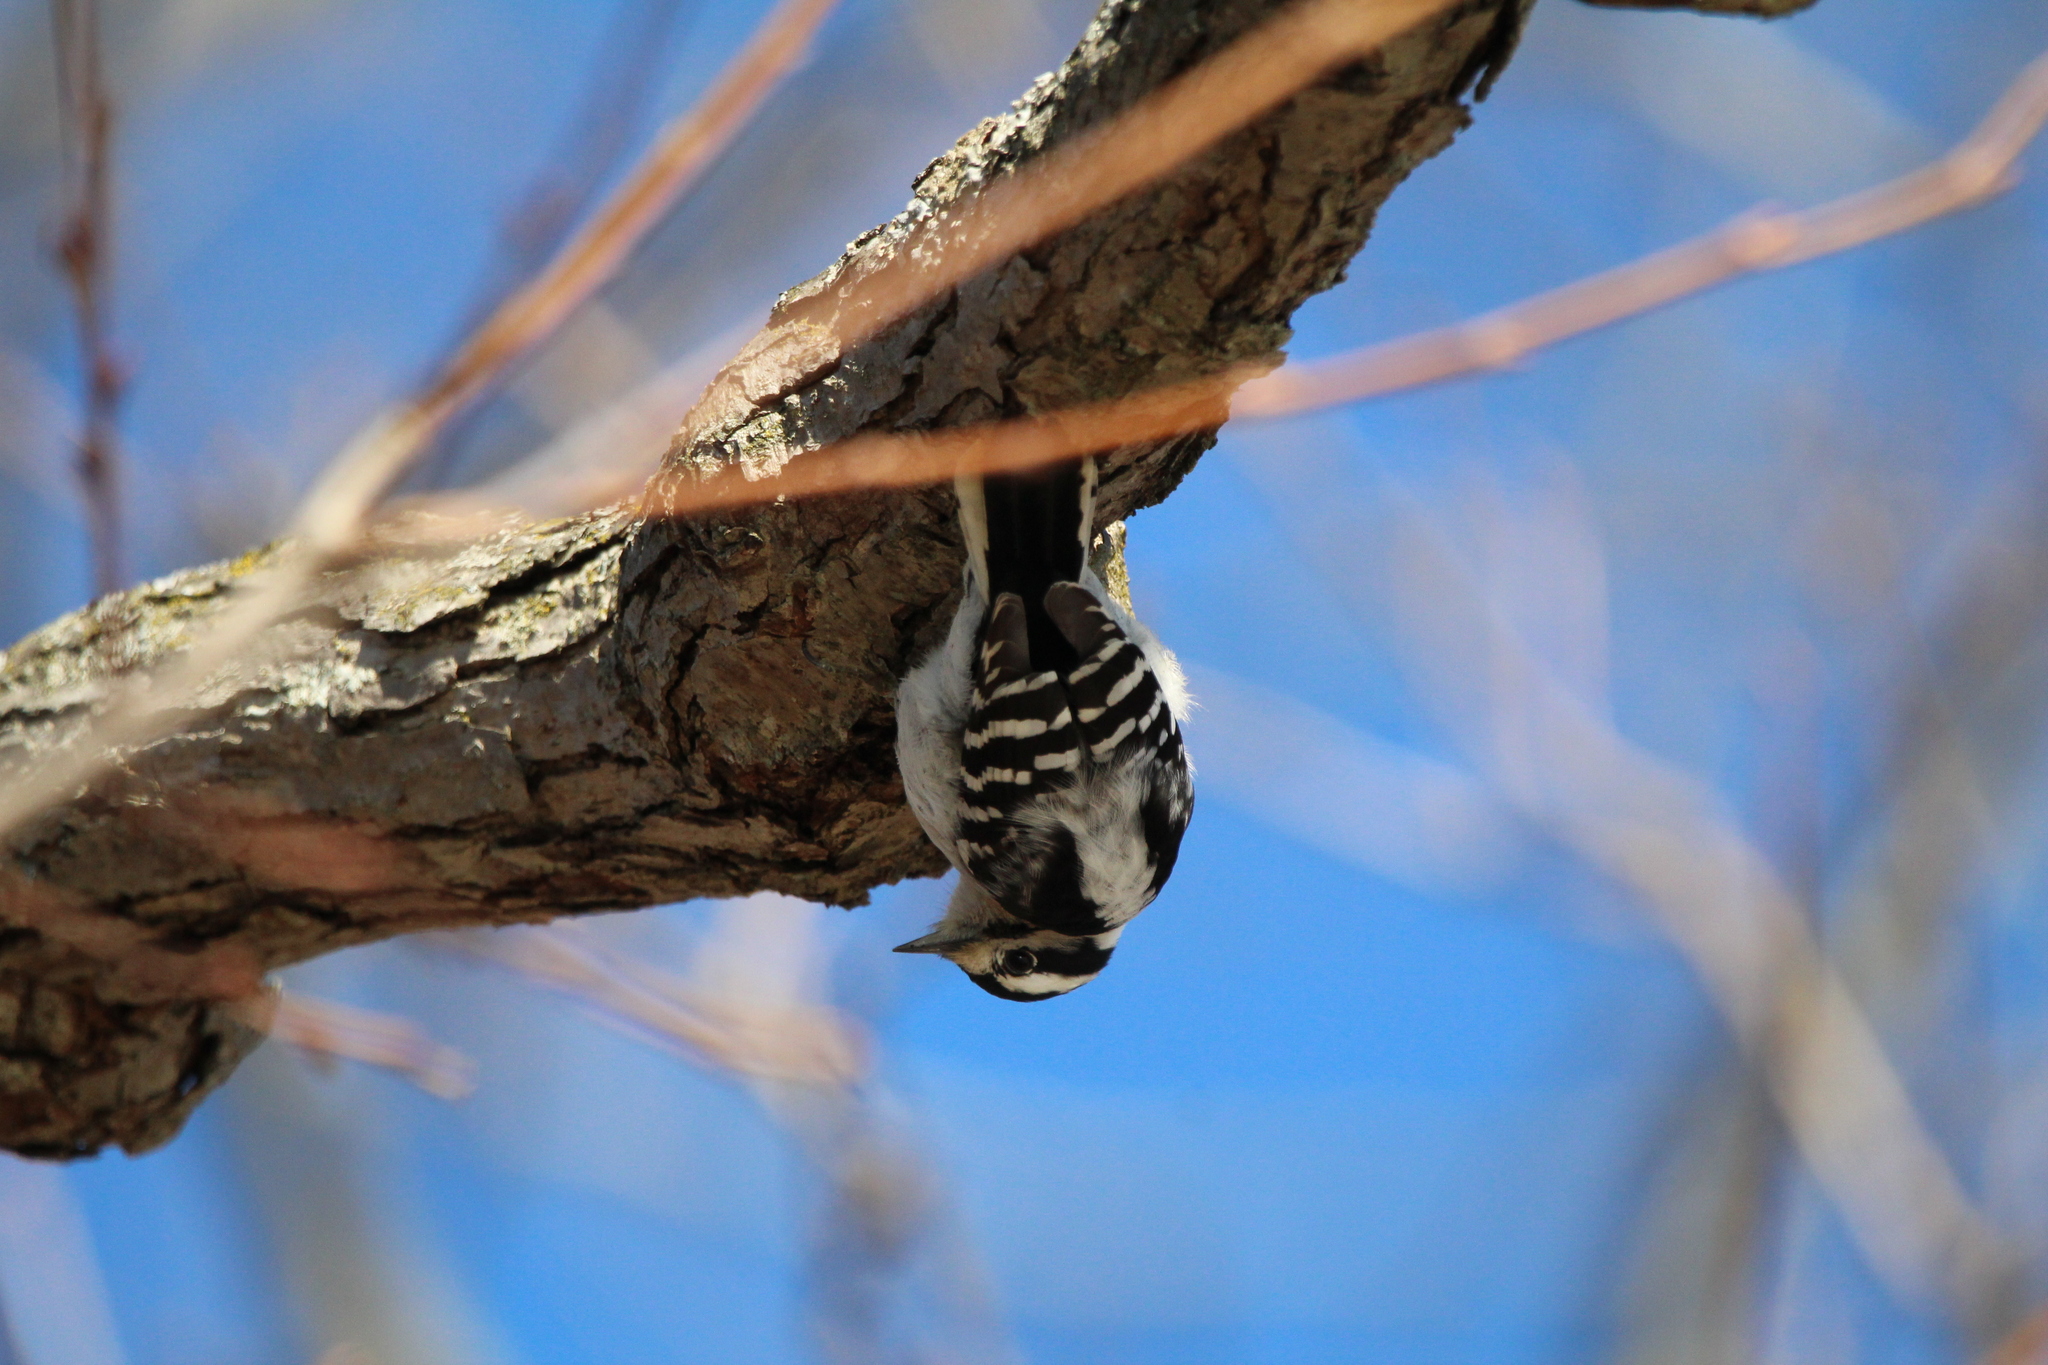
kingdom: Animalia
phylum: Chordata
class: Aves
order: Piciformes
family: Picidae
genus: Dryobates
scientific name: Dryobates pubescens
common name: Downy woodpecker
